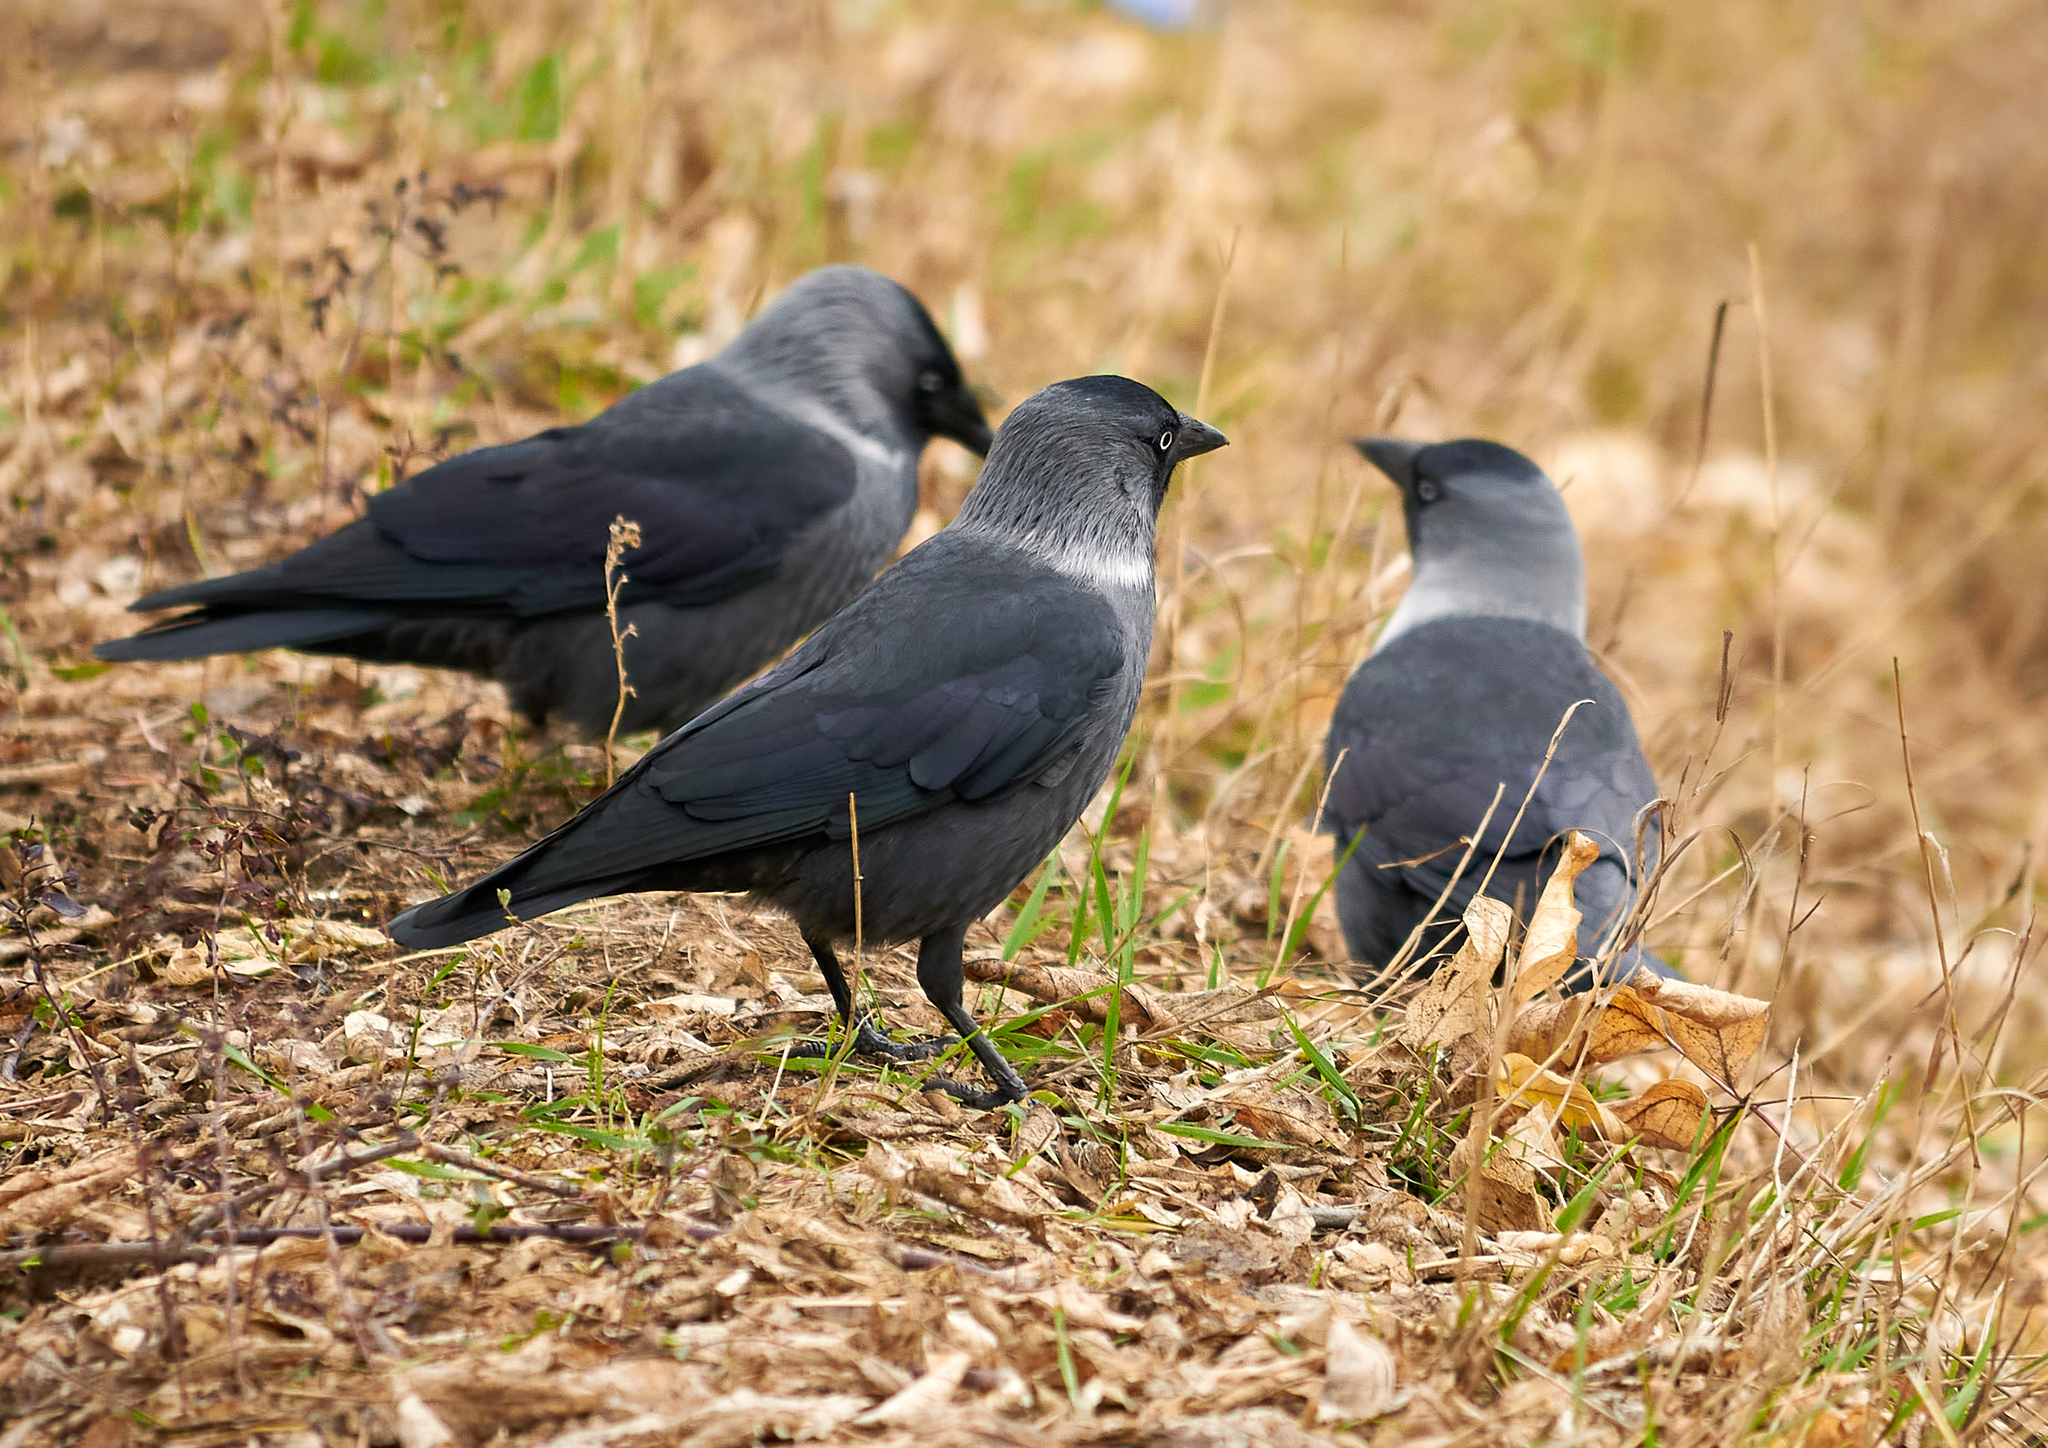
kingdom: Animalia
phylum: Chordata
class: Aves
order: Passeriformes
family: Corvidae
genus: Coloeus
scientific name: Coloeus monedula
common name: Western jackdaw
